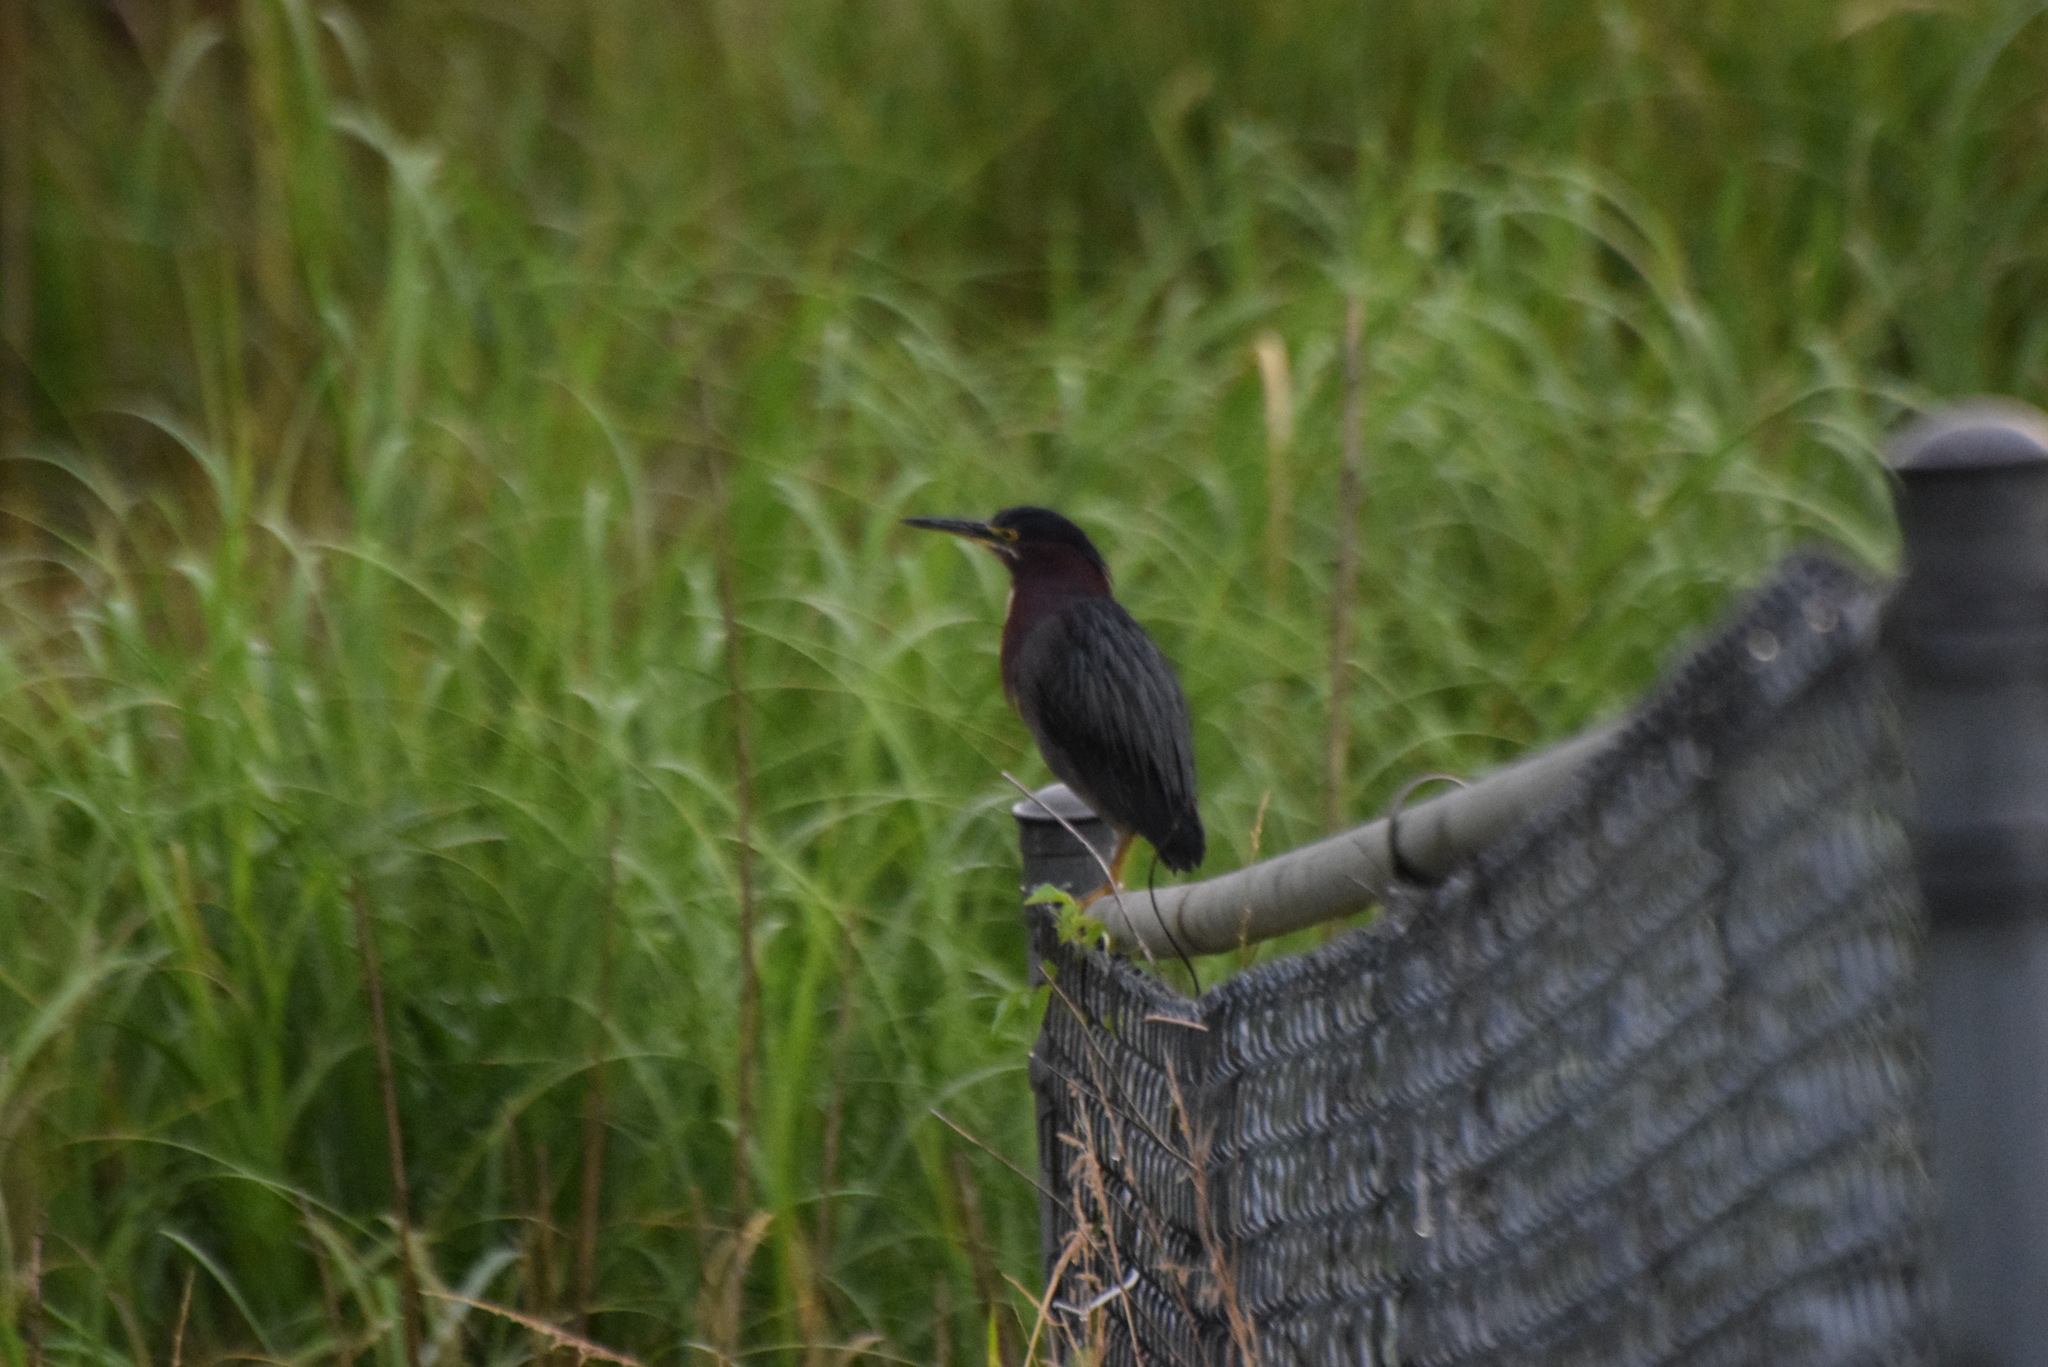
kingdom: Animalia
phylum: Chordata
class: Aves
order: Pelecaniformes
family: Ardeidae
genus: Butorides
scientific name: Butorides virescens
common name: Green heron
